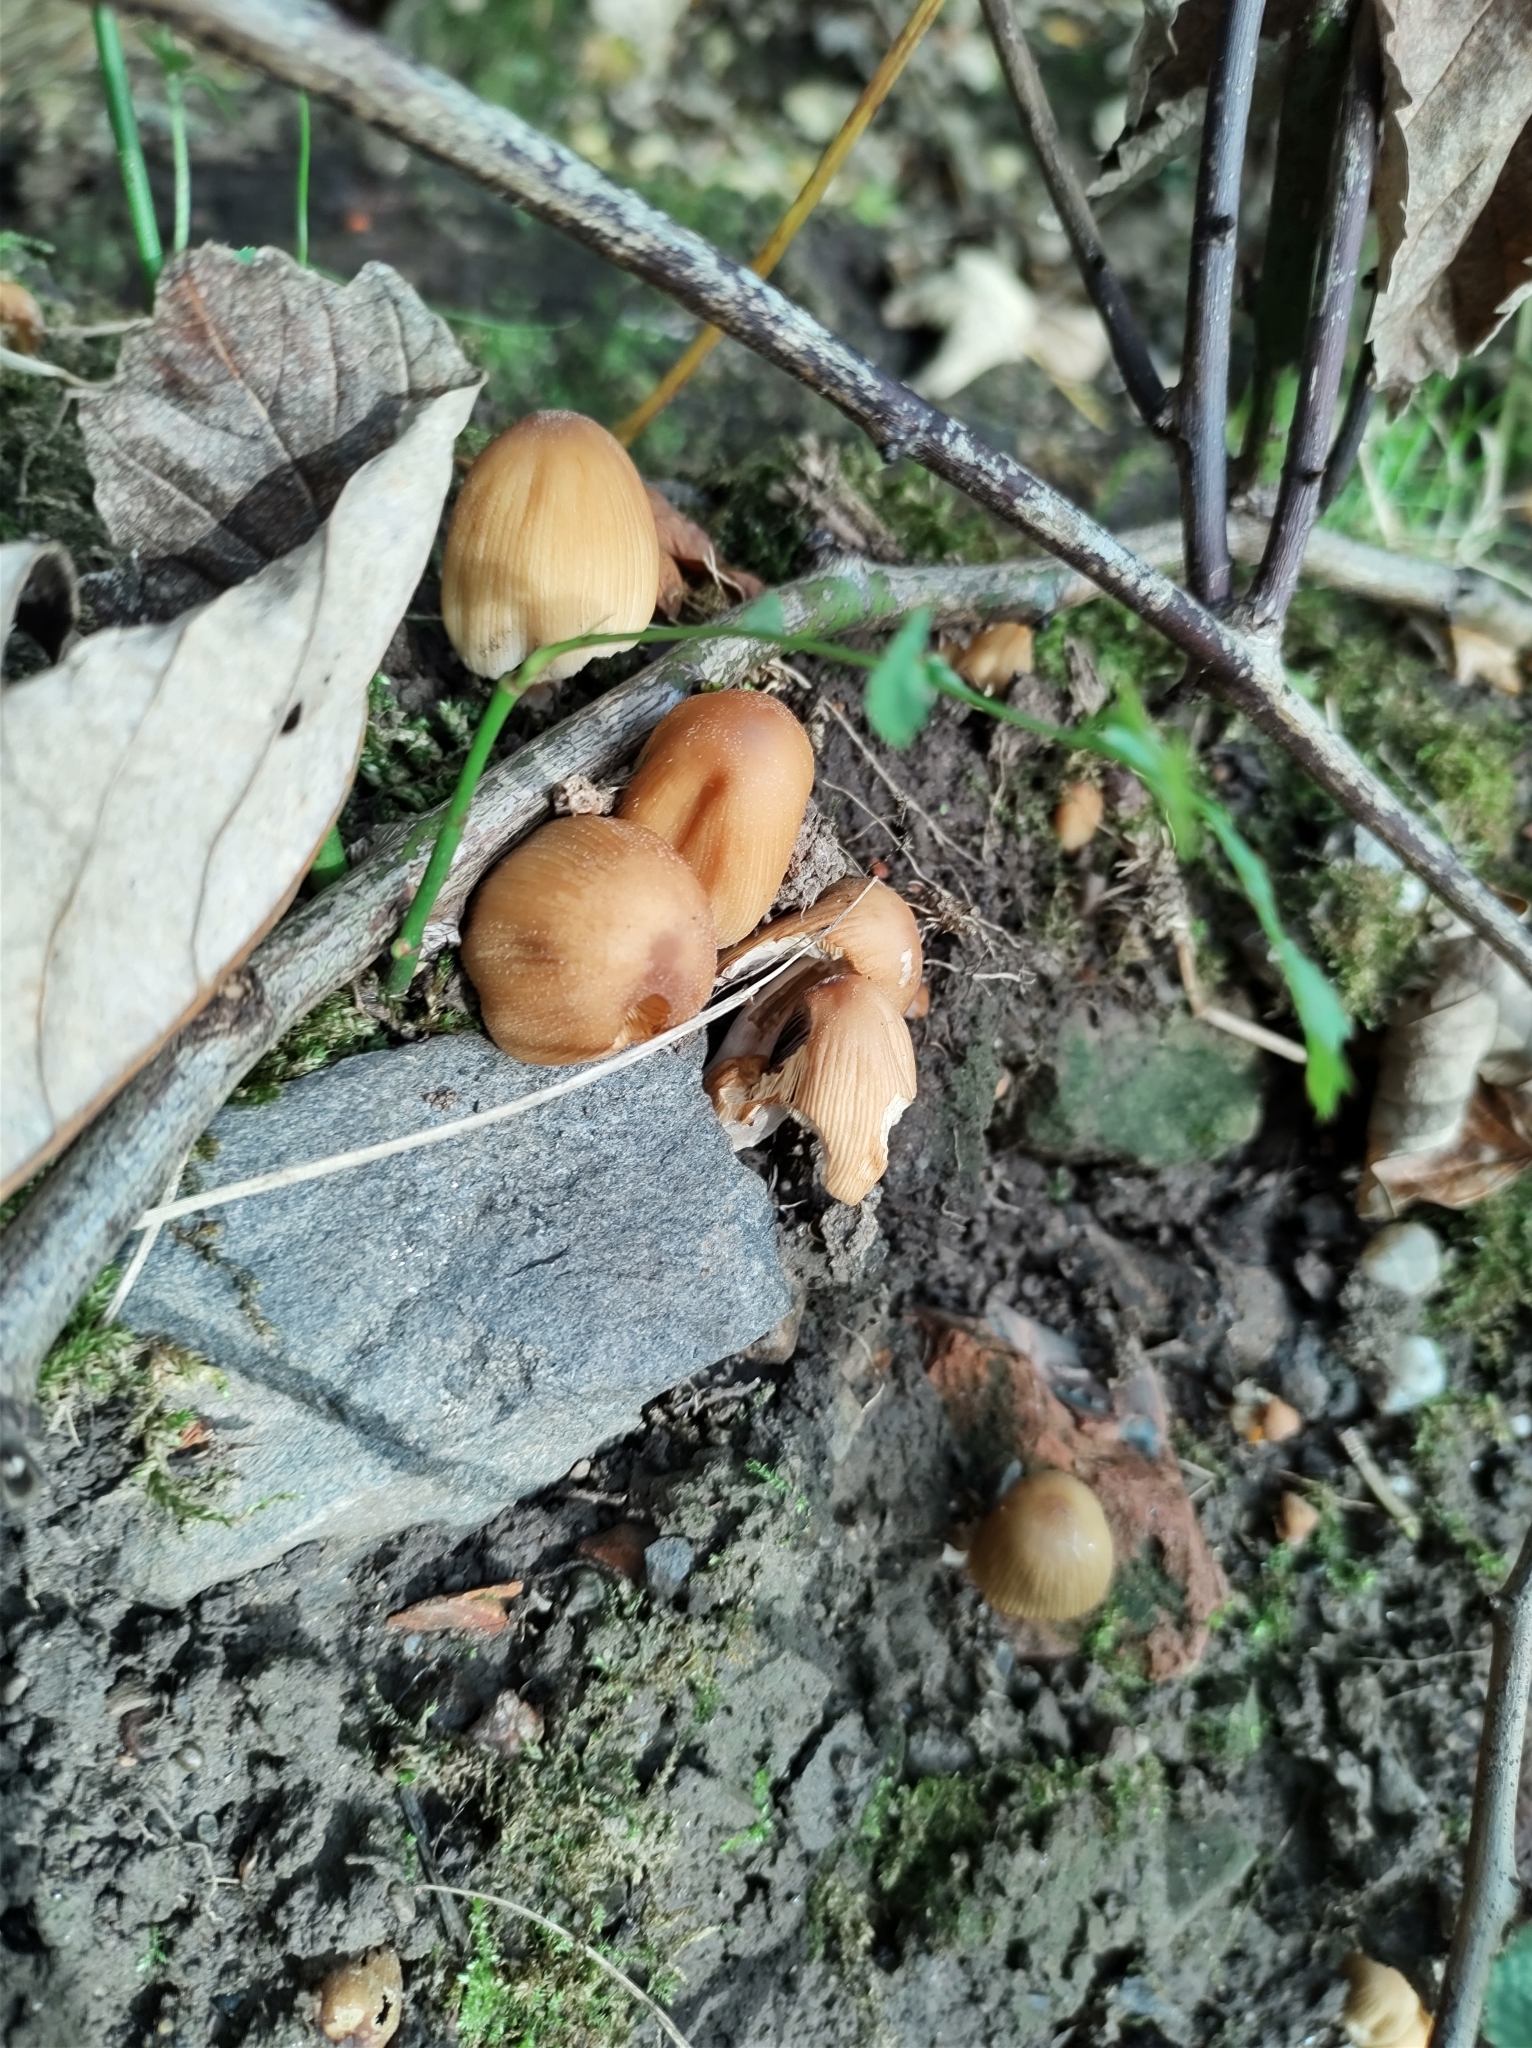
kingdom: Fungi
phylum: Basidiomycota
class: Agaricomycetes
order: Agaricales
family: Psathyrellaceae
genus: Coprinellus
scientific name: Coprinellus micaceus
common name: Glistening ink-cap
